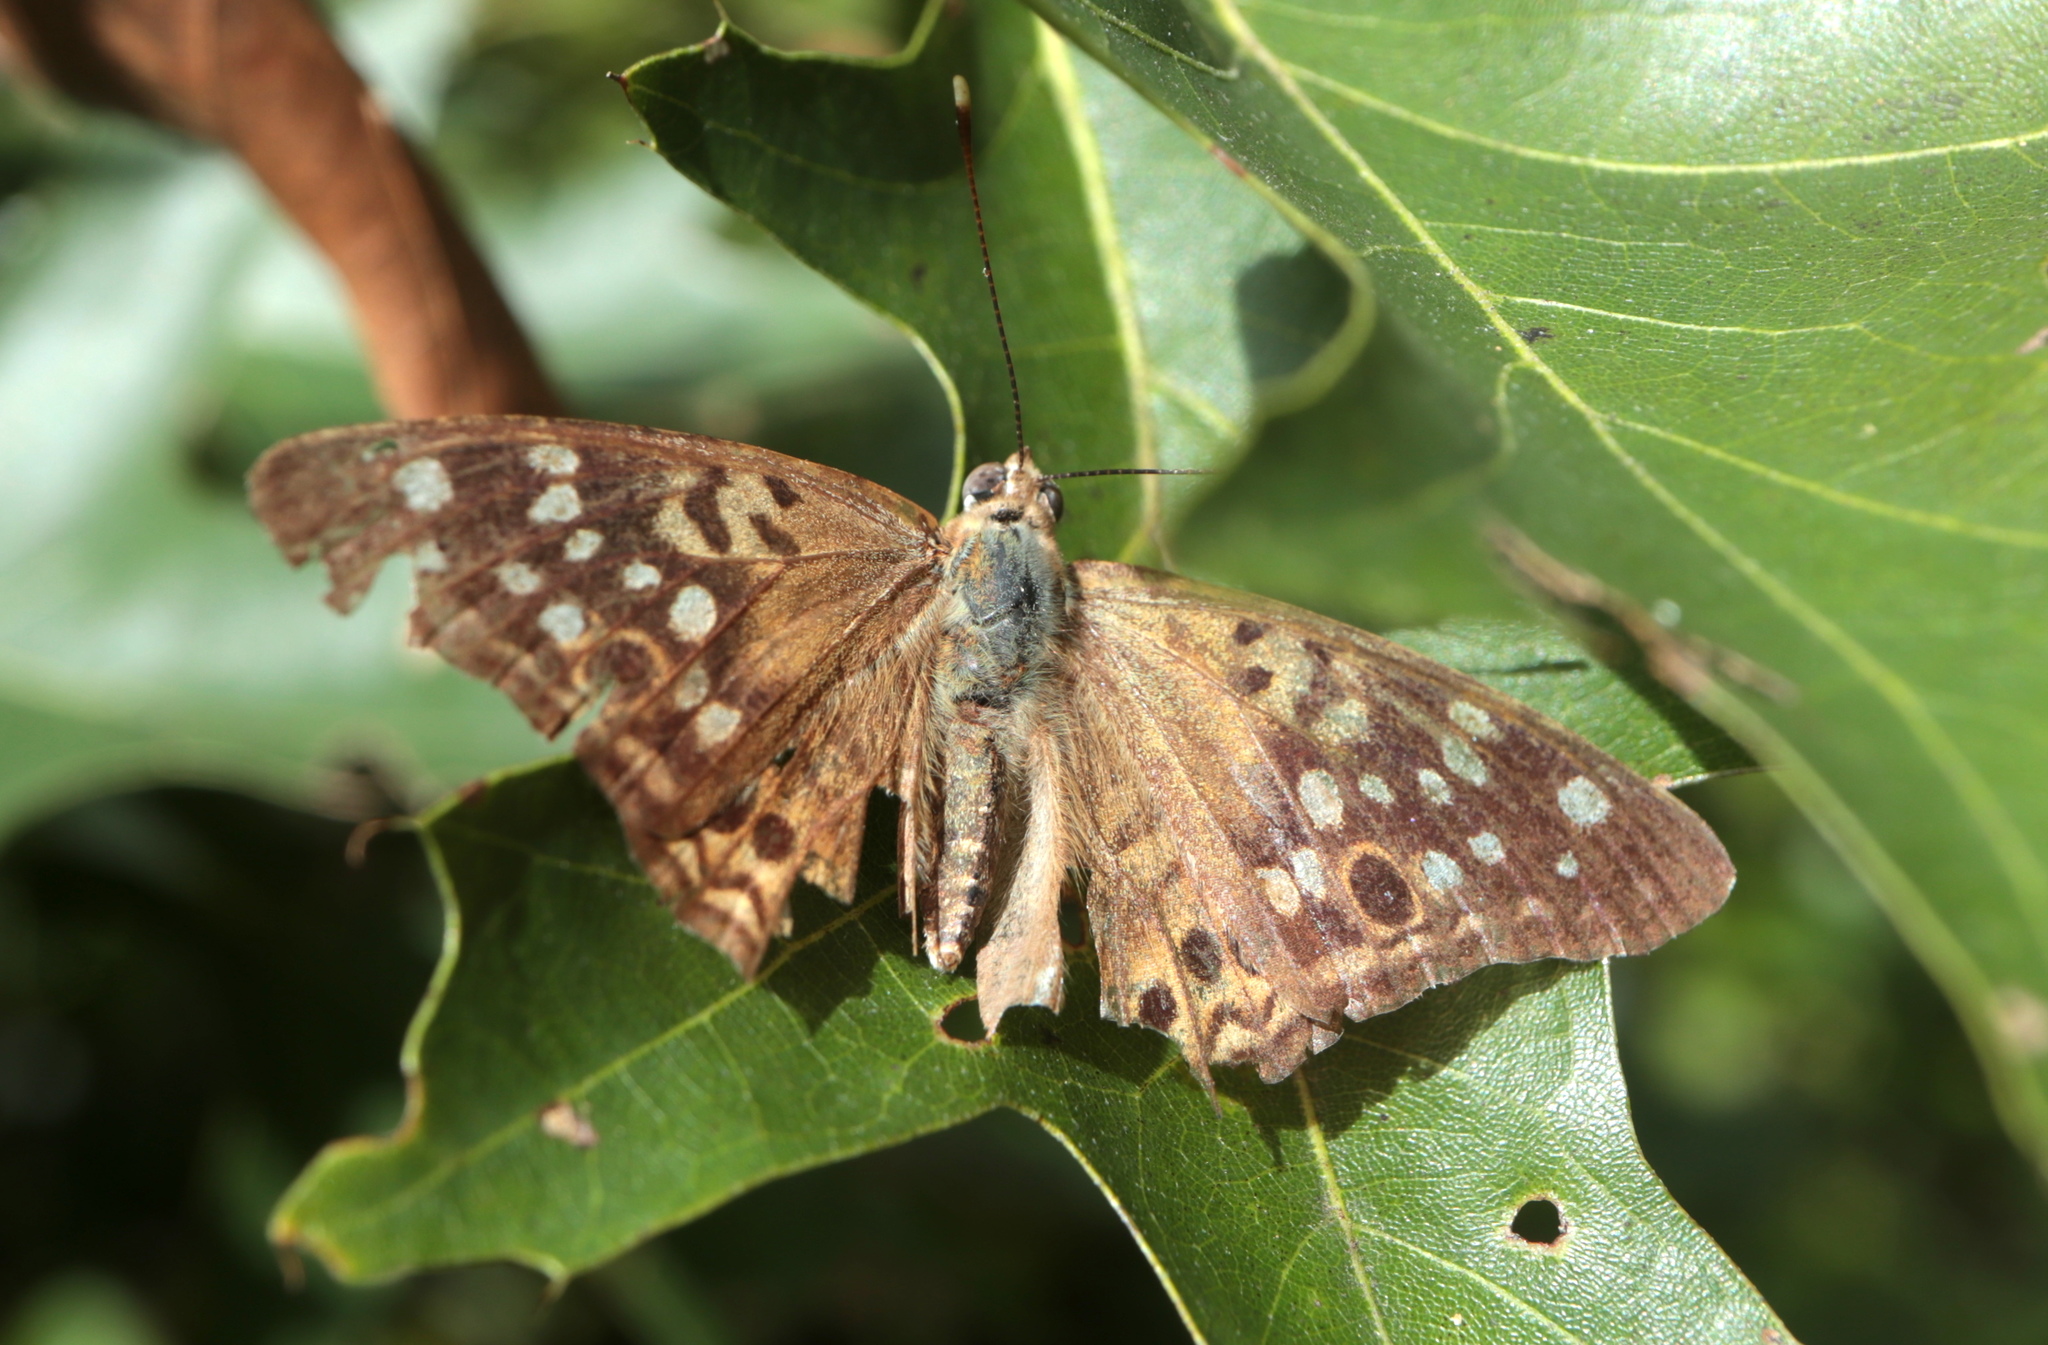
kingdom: Animalia
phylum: Arthropoda
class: Insecta
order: Lepidoptera
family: Nymphalidae
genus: Asterocampa
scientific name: Asterocampa celtis
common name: Hackberry emperor
